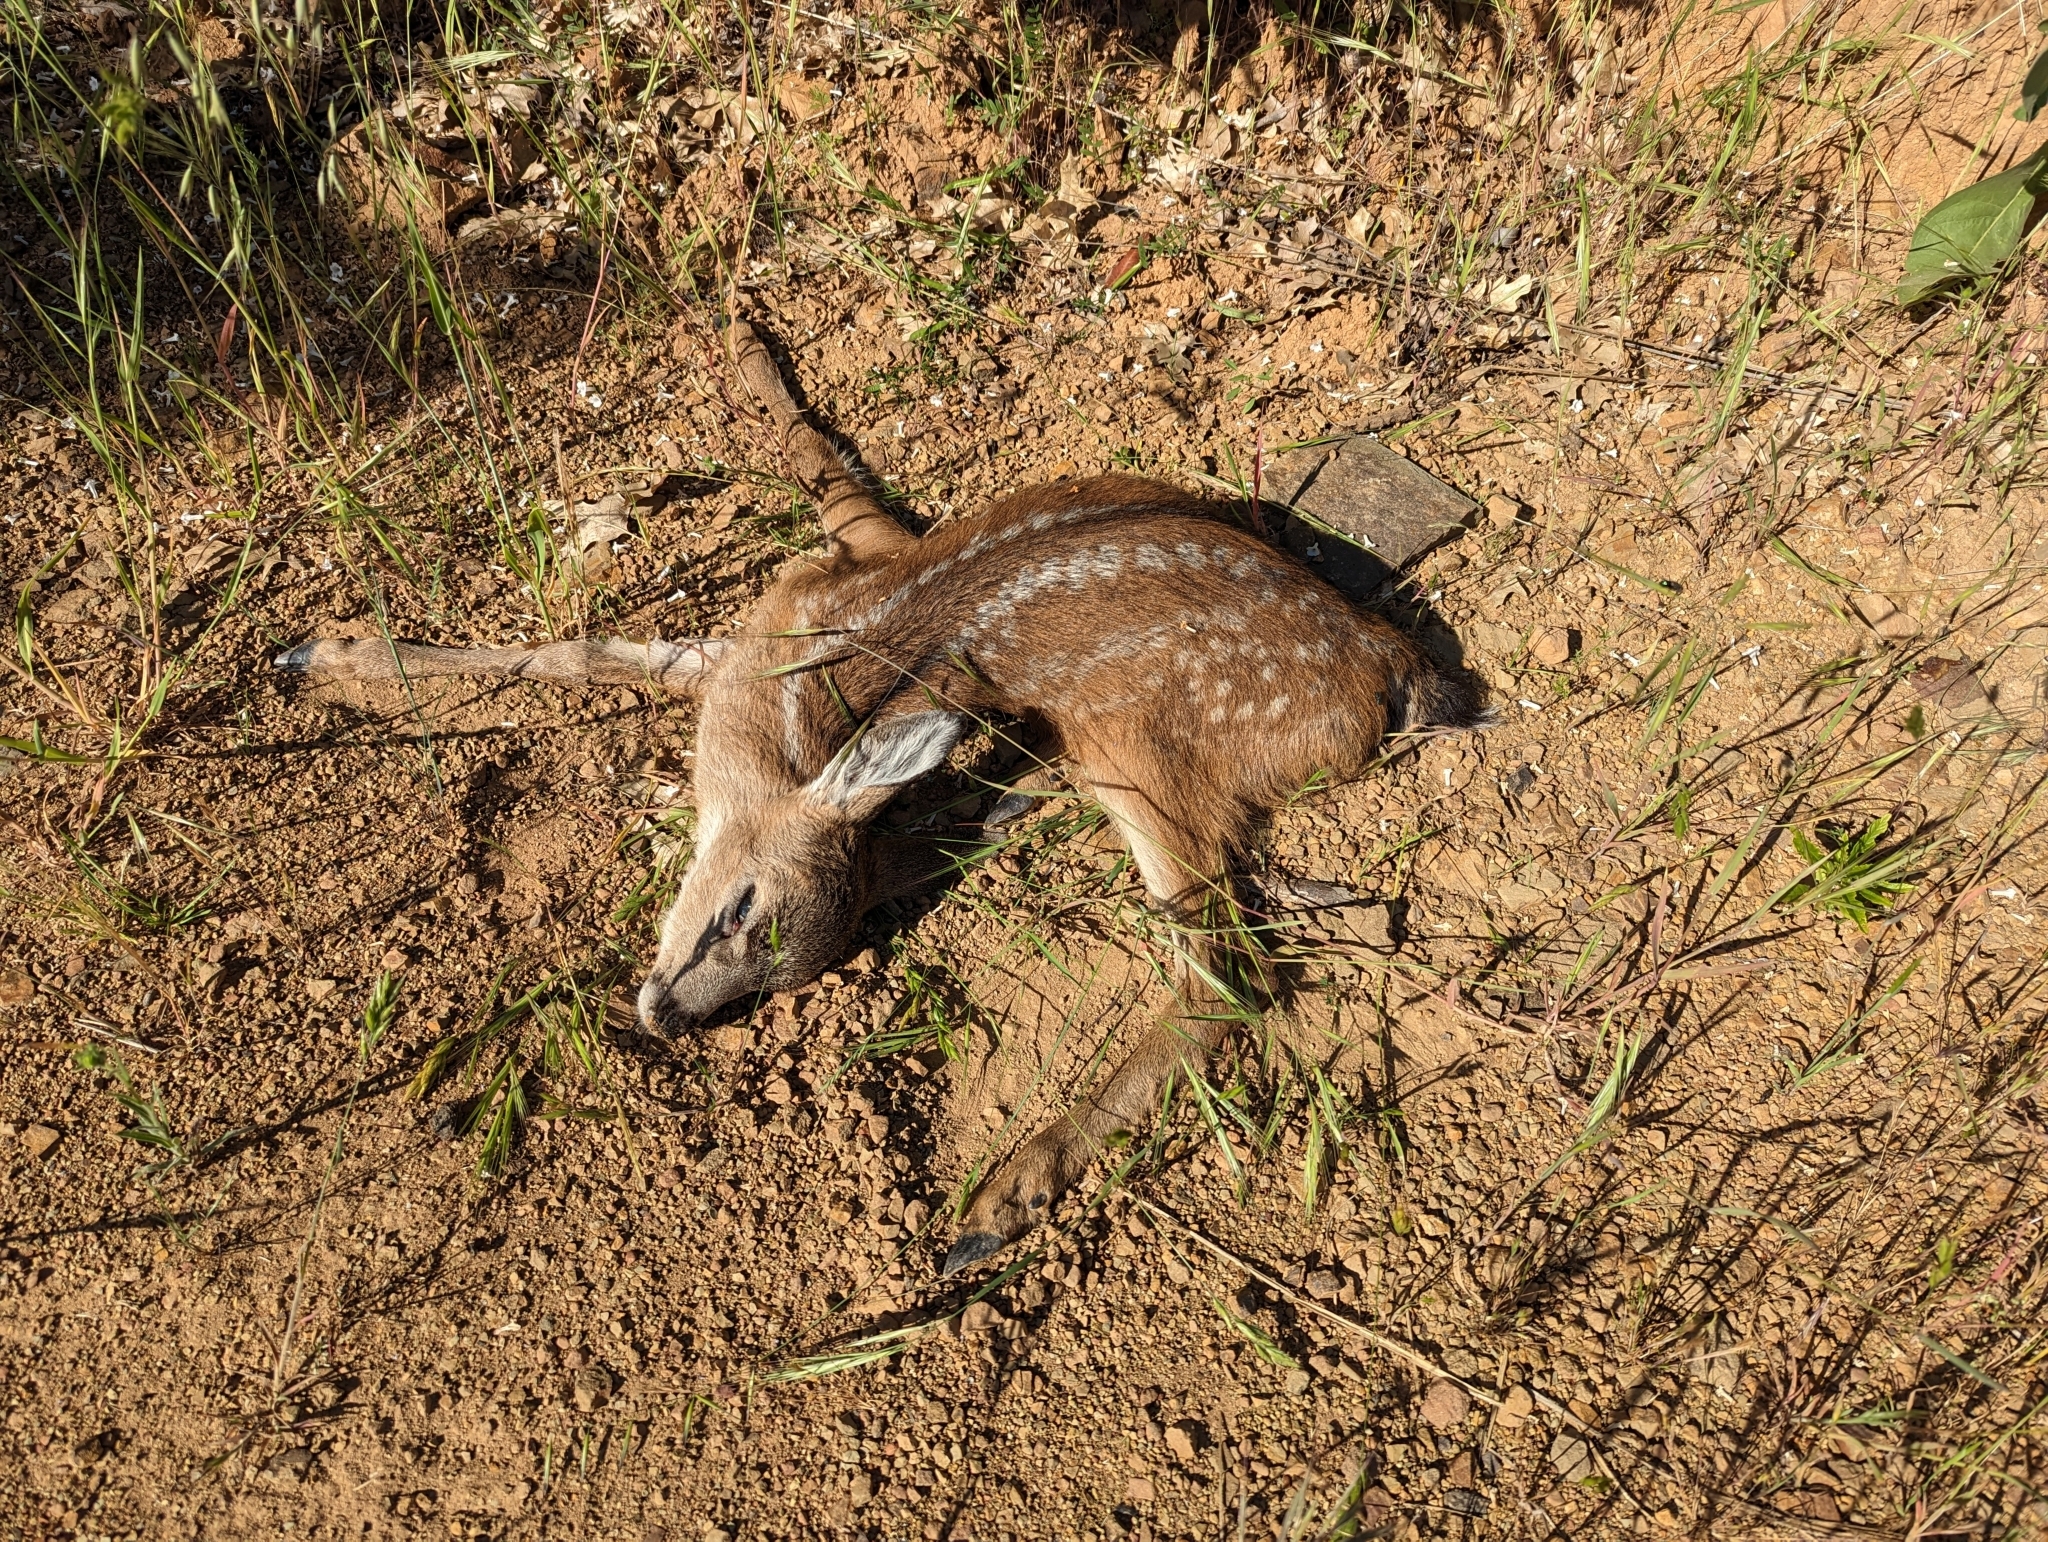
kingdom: Animalia
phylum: Chordata
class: Mammalia
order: Artiodactyla
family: Cervidae
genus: Odocoileus
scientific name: Odocoileus hemionus
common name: Mule deer
